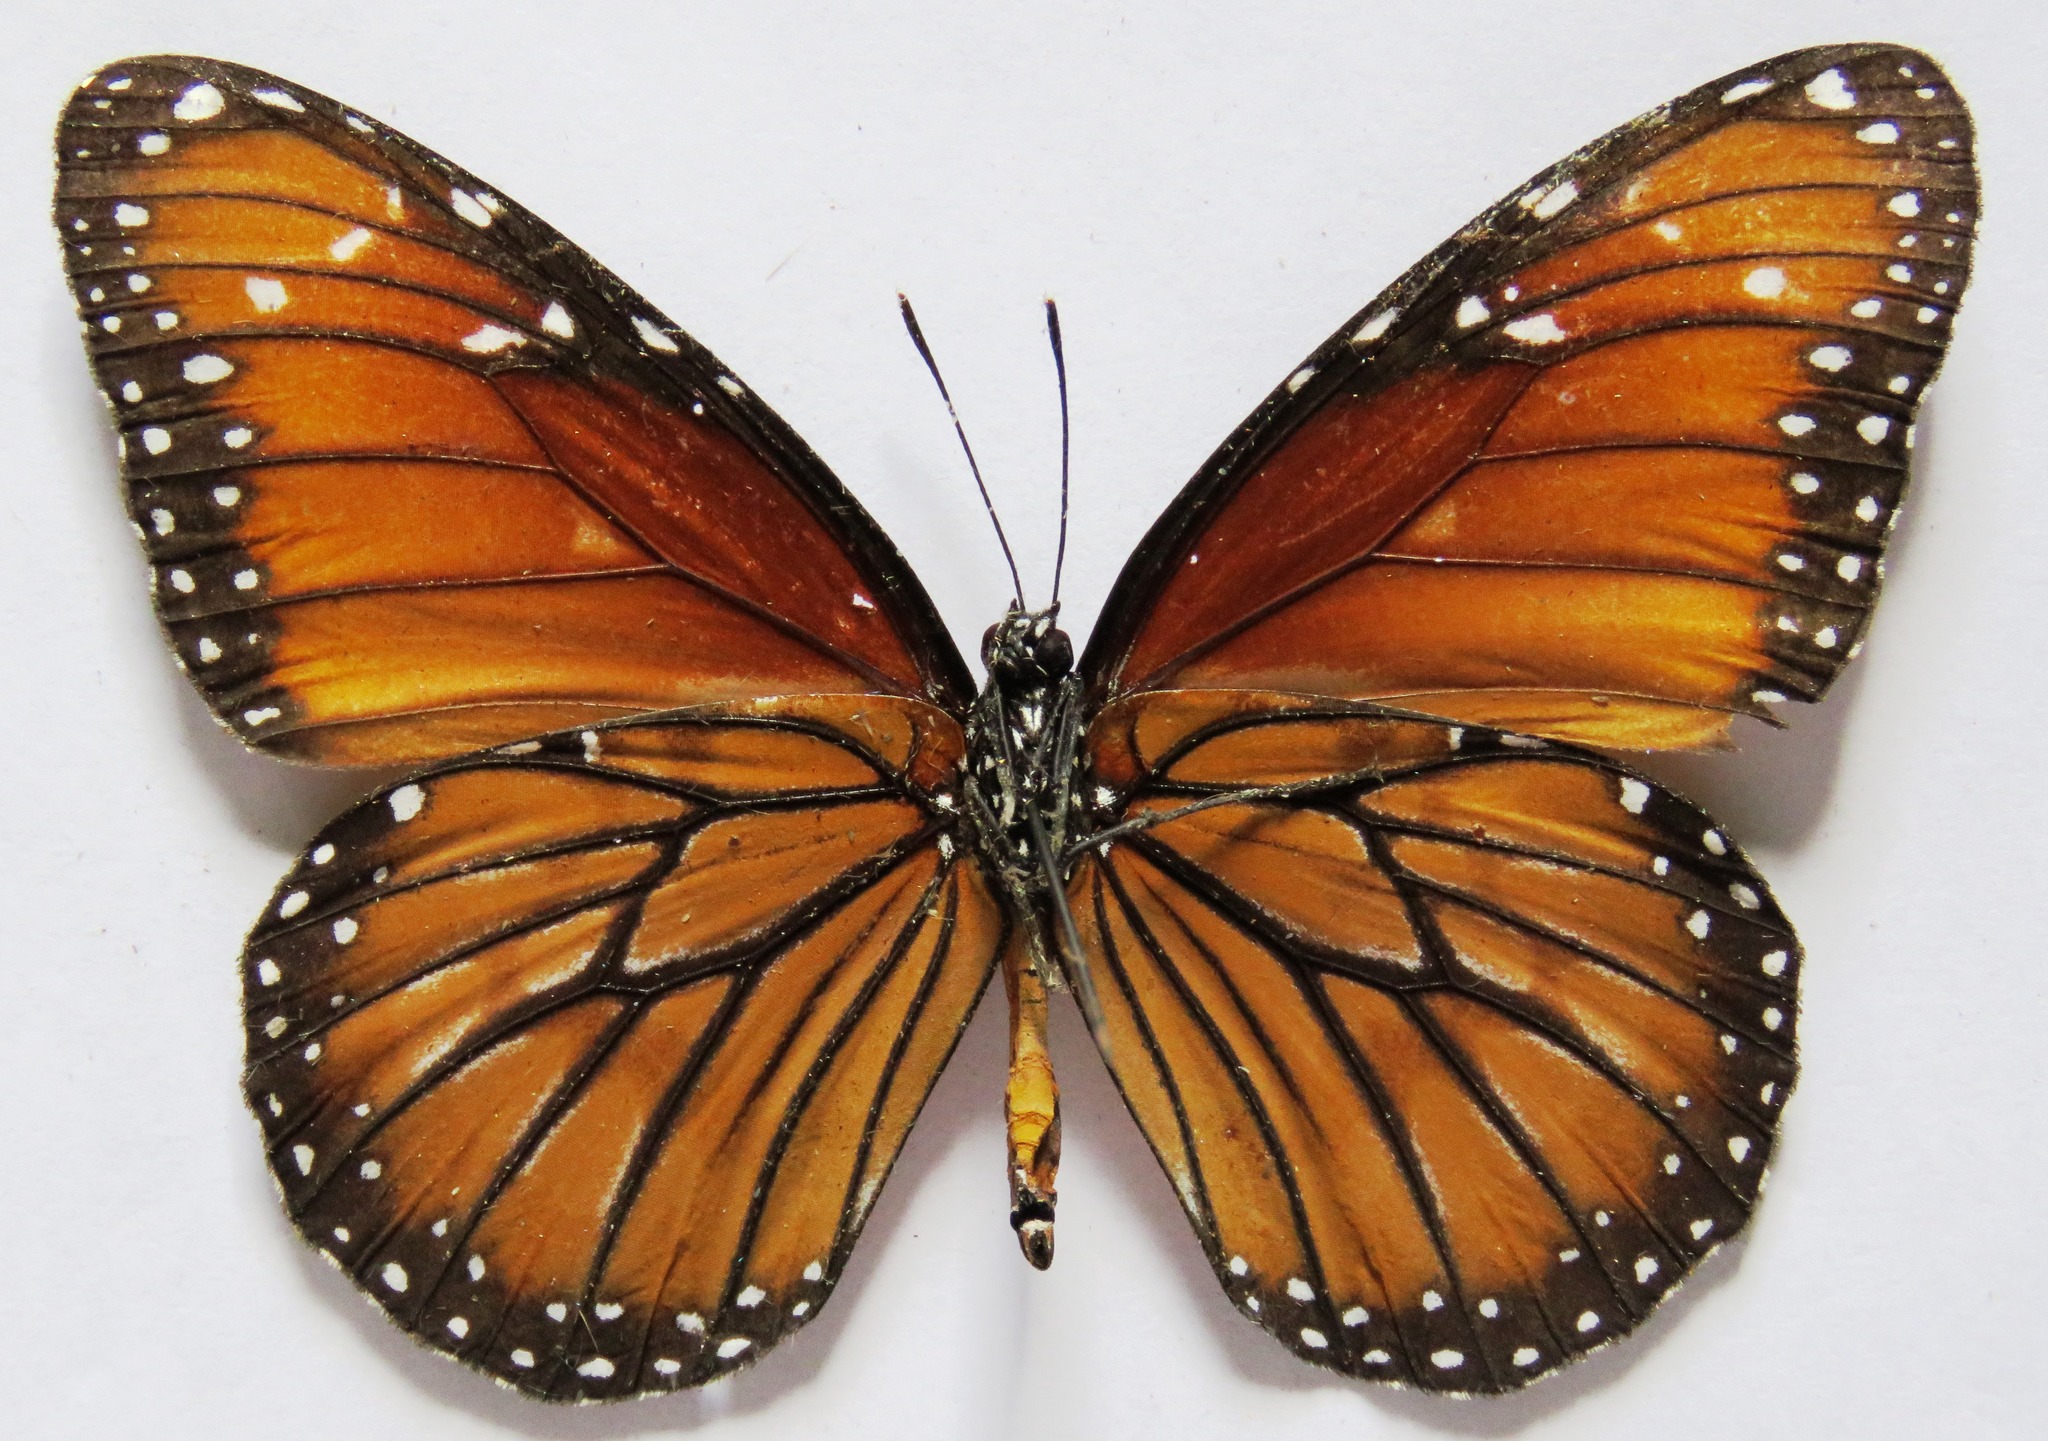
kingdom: Animalia
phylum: Arthropoda
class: Insecta
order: Lepidoptera
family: Nymphalidae
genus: Danaus
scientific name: Danaus eresimus
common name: Soldier
